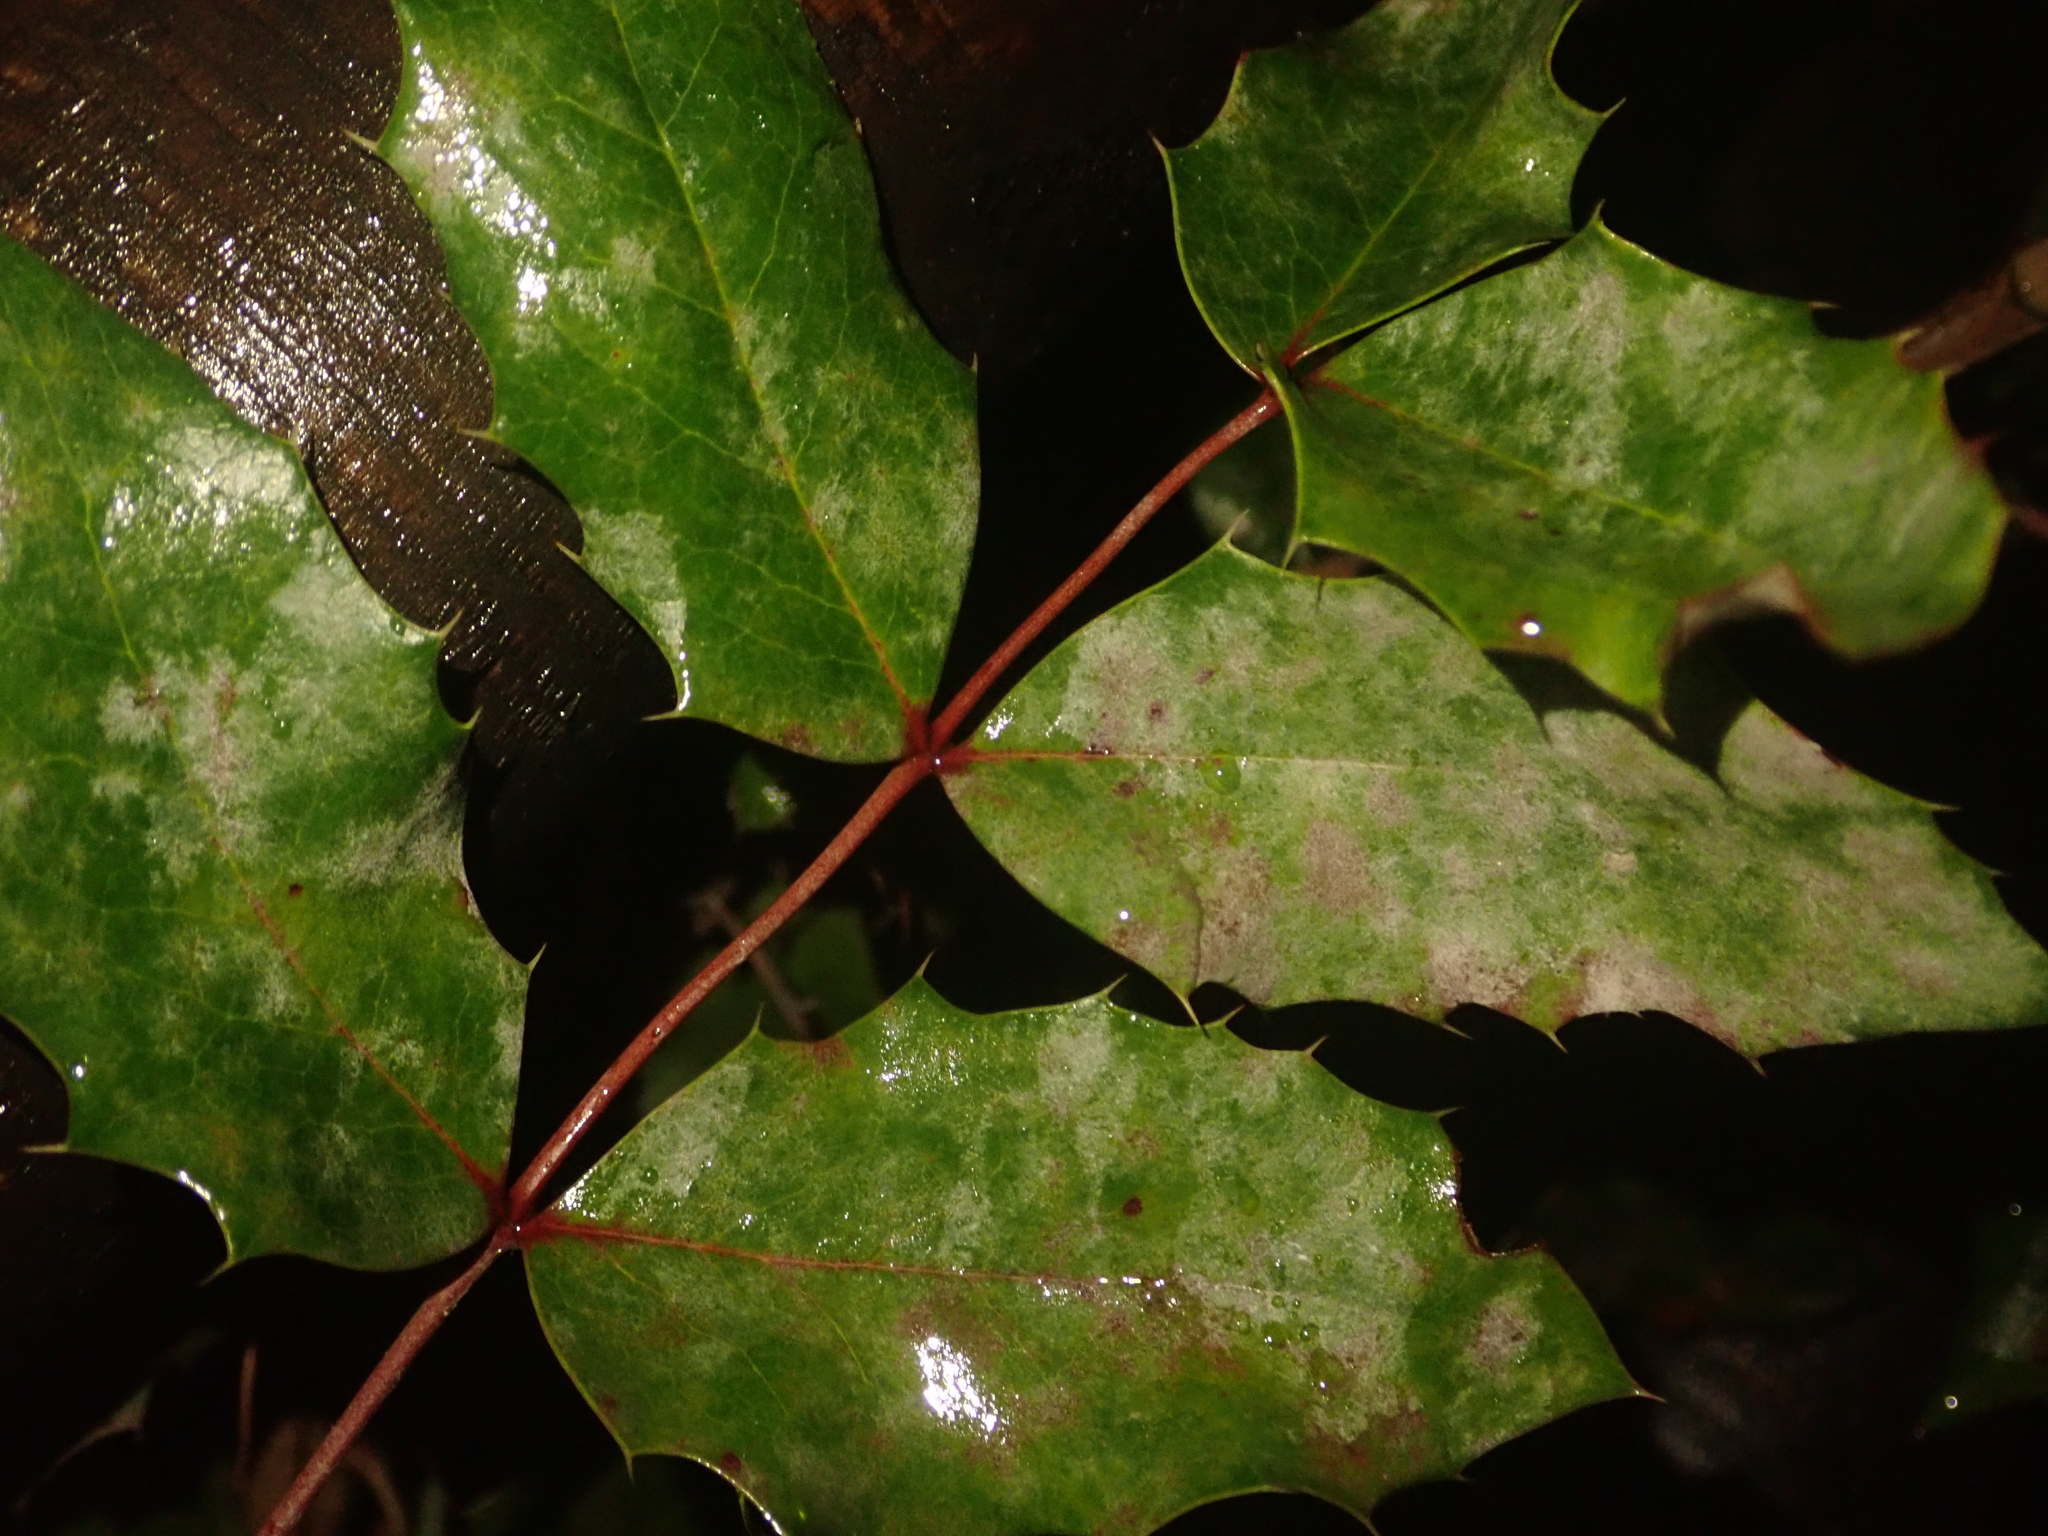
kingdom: Fungi
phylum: Ascomycota
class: Leotiomycetes
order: Helotiales
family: Erysiphaceae
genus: Erysiphe
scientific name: Erysiphe berberidis
